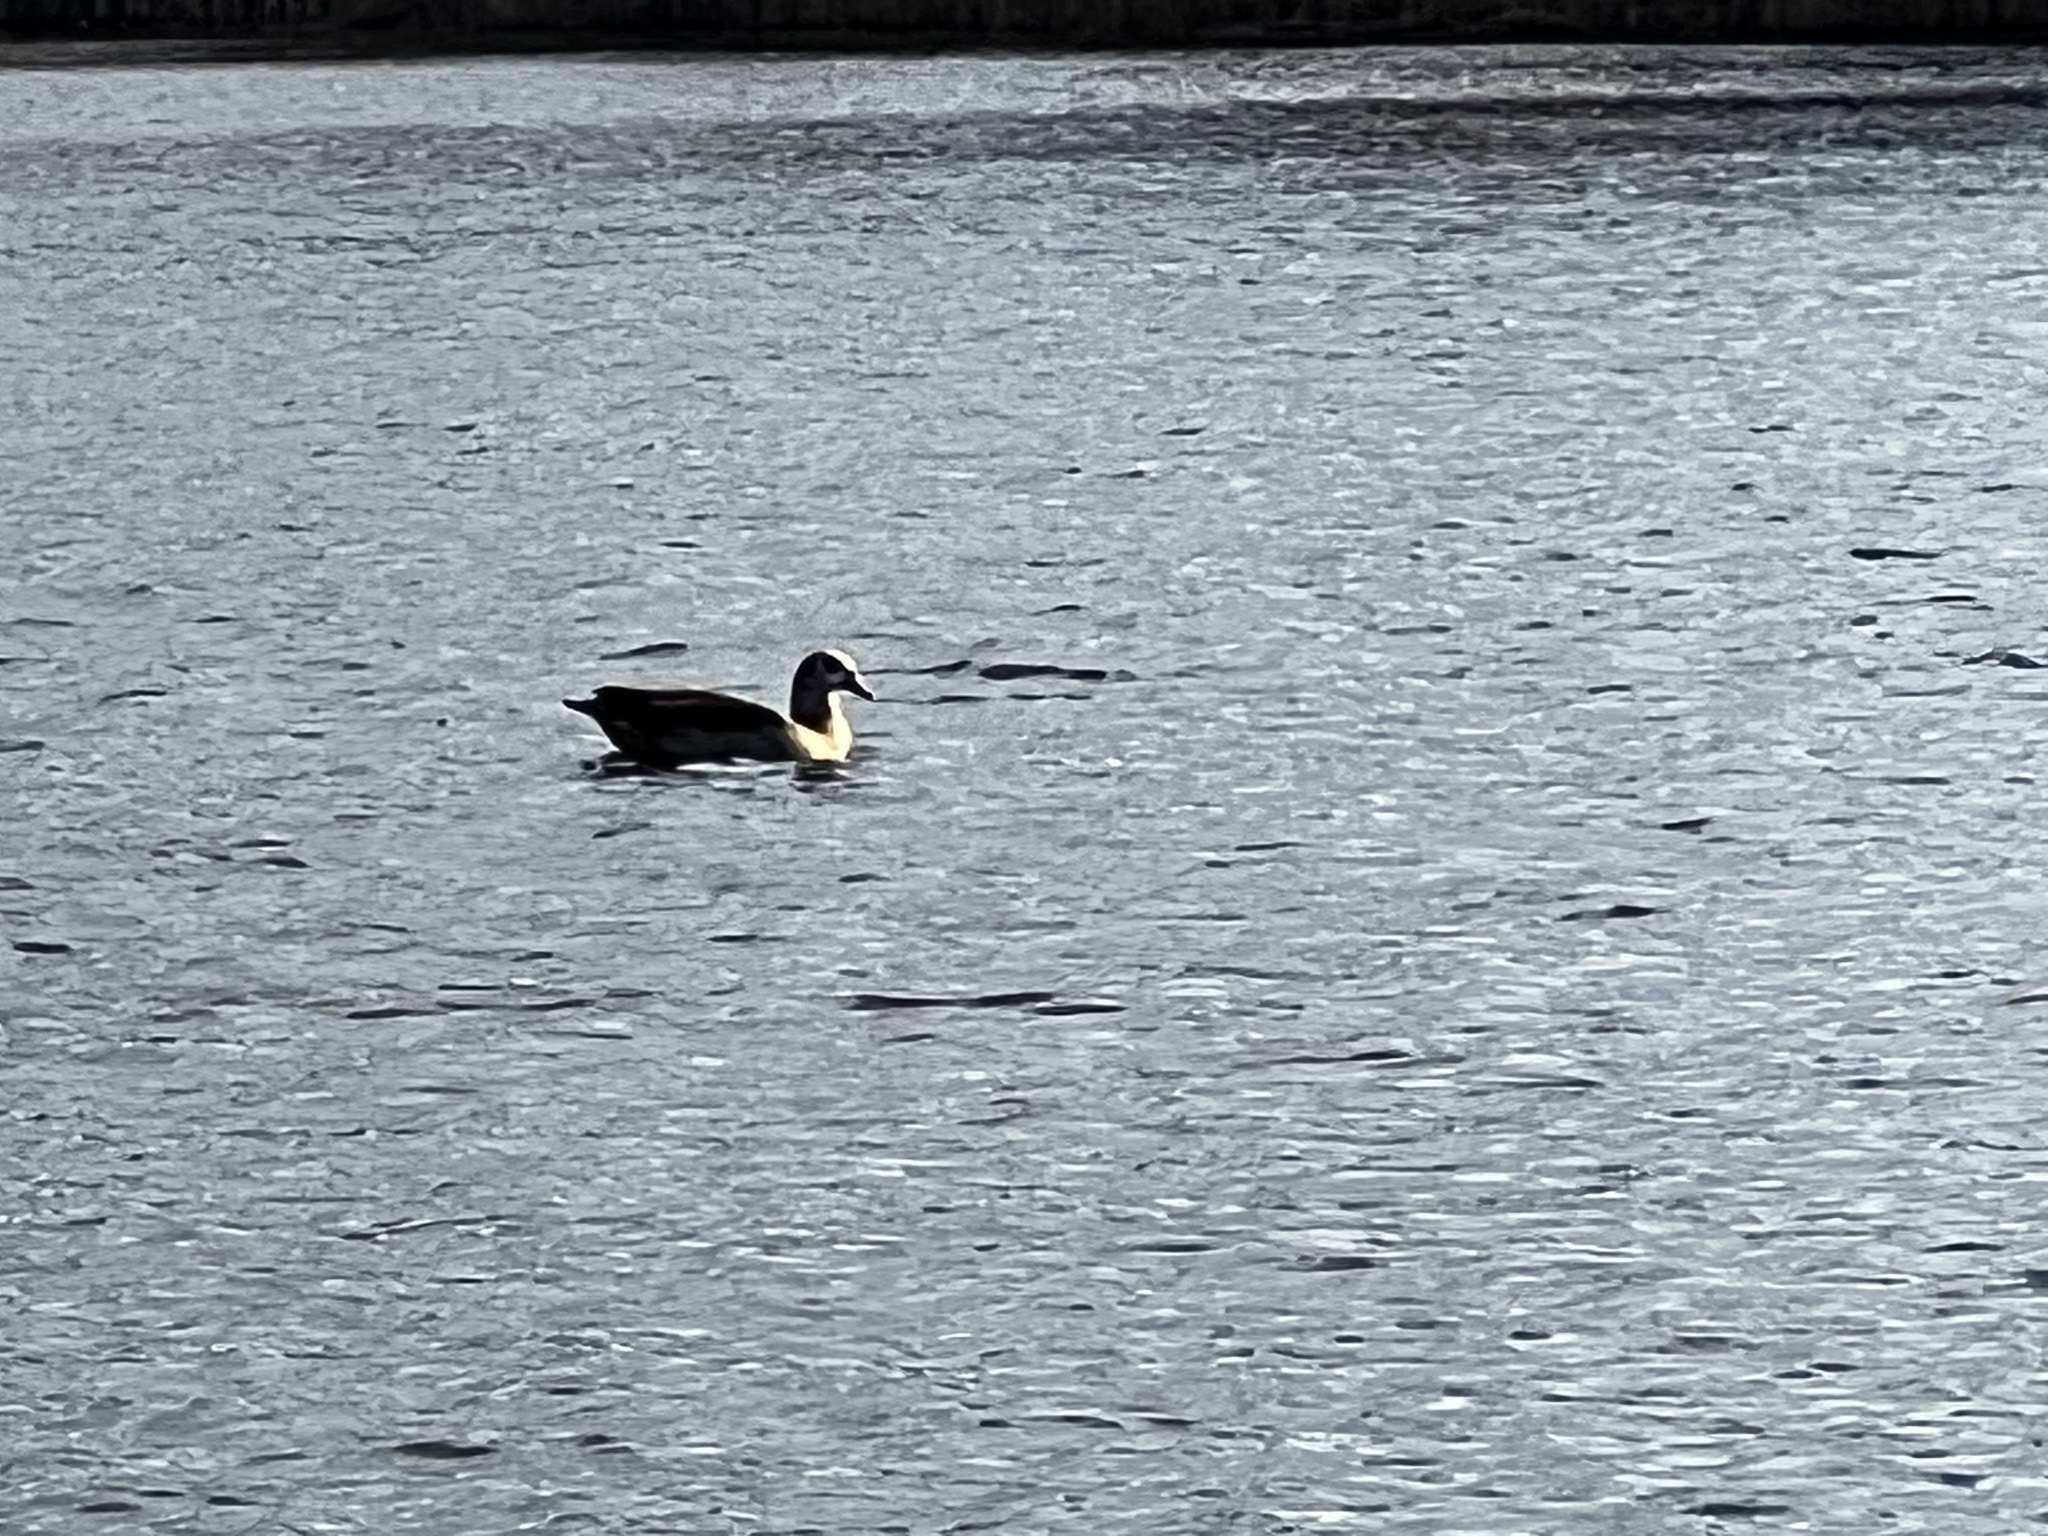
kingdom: Animalia
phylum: Chordata
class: Aves
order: Anseriformes
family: Anatidae
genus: Alopochen
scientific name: Alopochen aegyptiaca
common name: Egyptian goose
